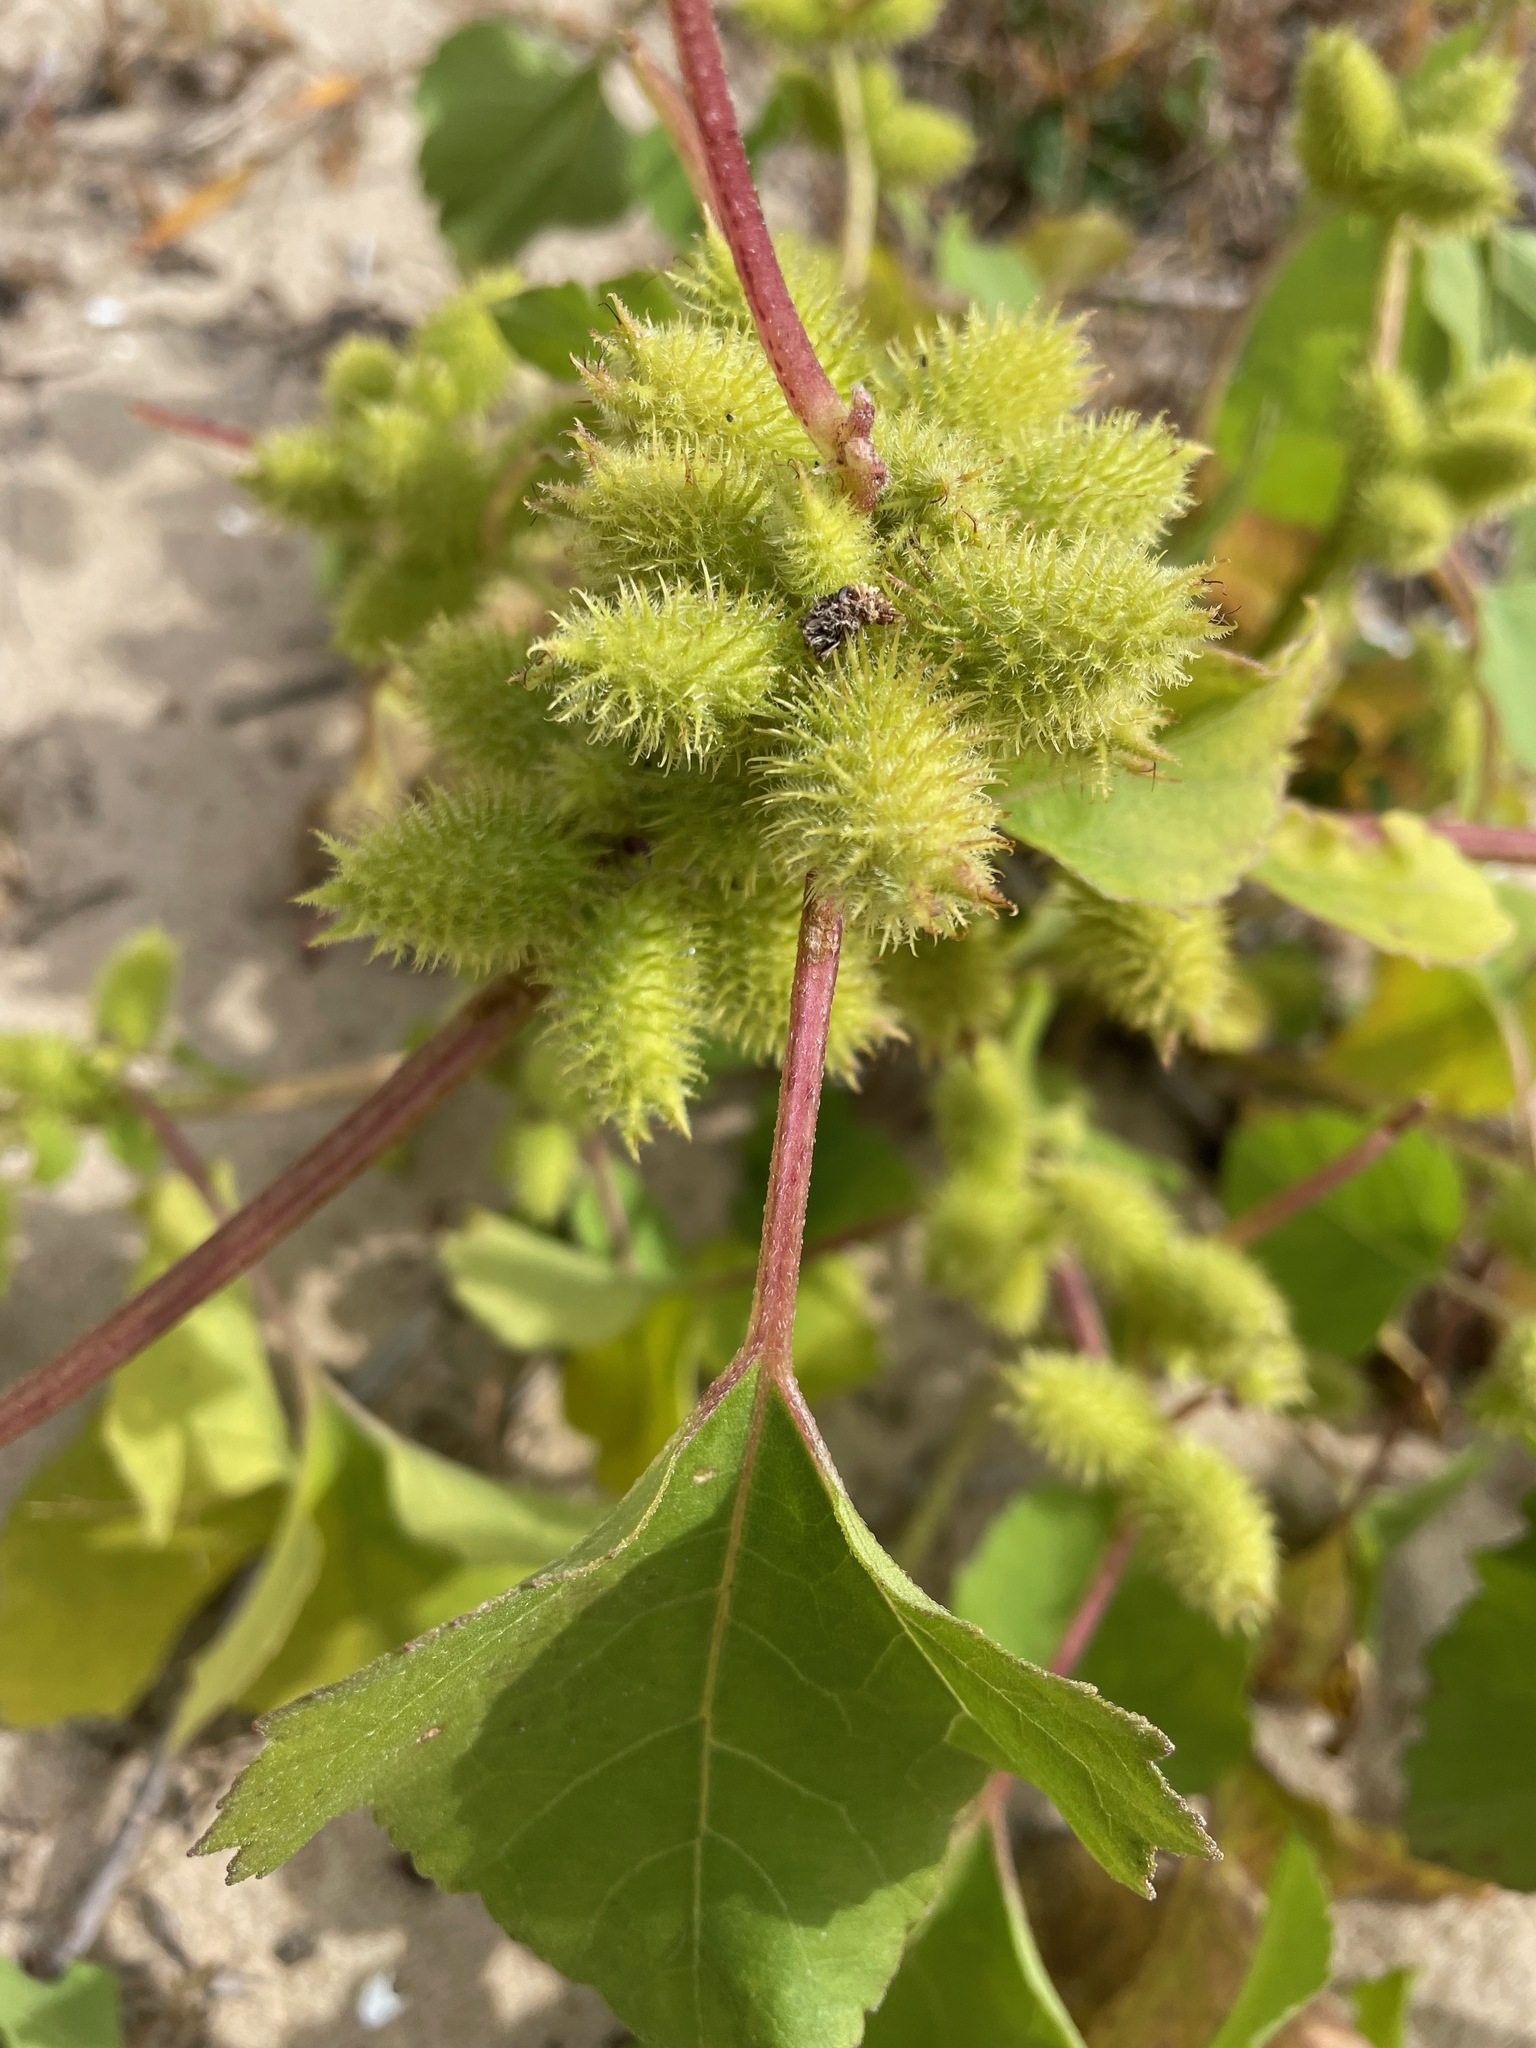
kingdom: Plantae
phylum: Tracheophyta
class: Magnoliopsida
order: Asterales
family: Asteraceae
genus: Xanthium
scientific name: Xanthium strumarium
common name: Rough cocklebur
